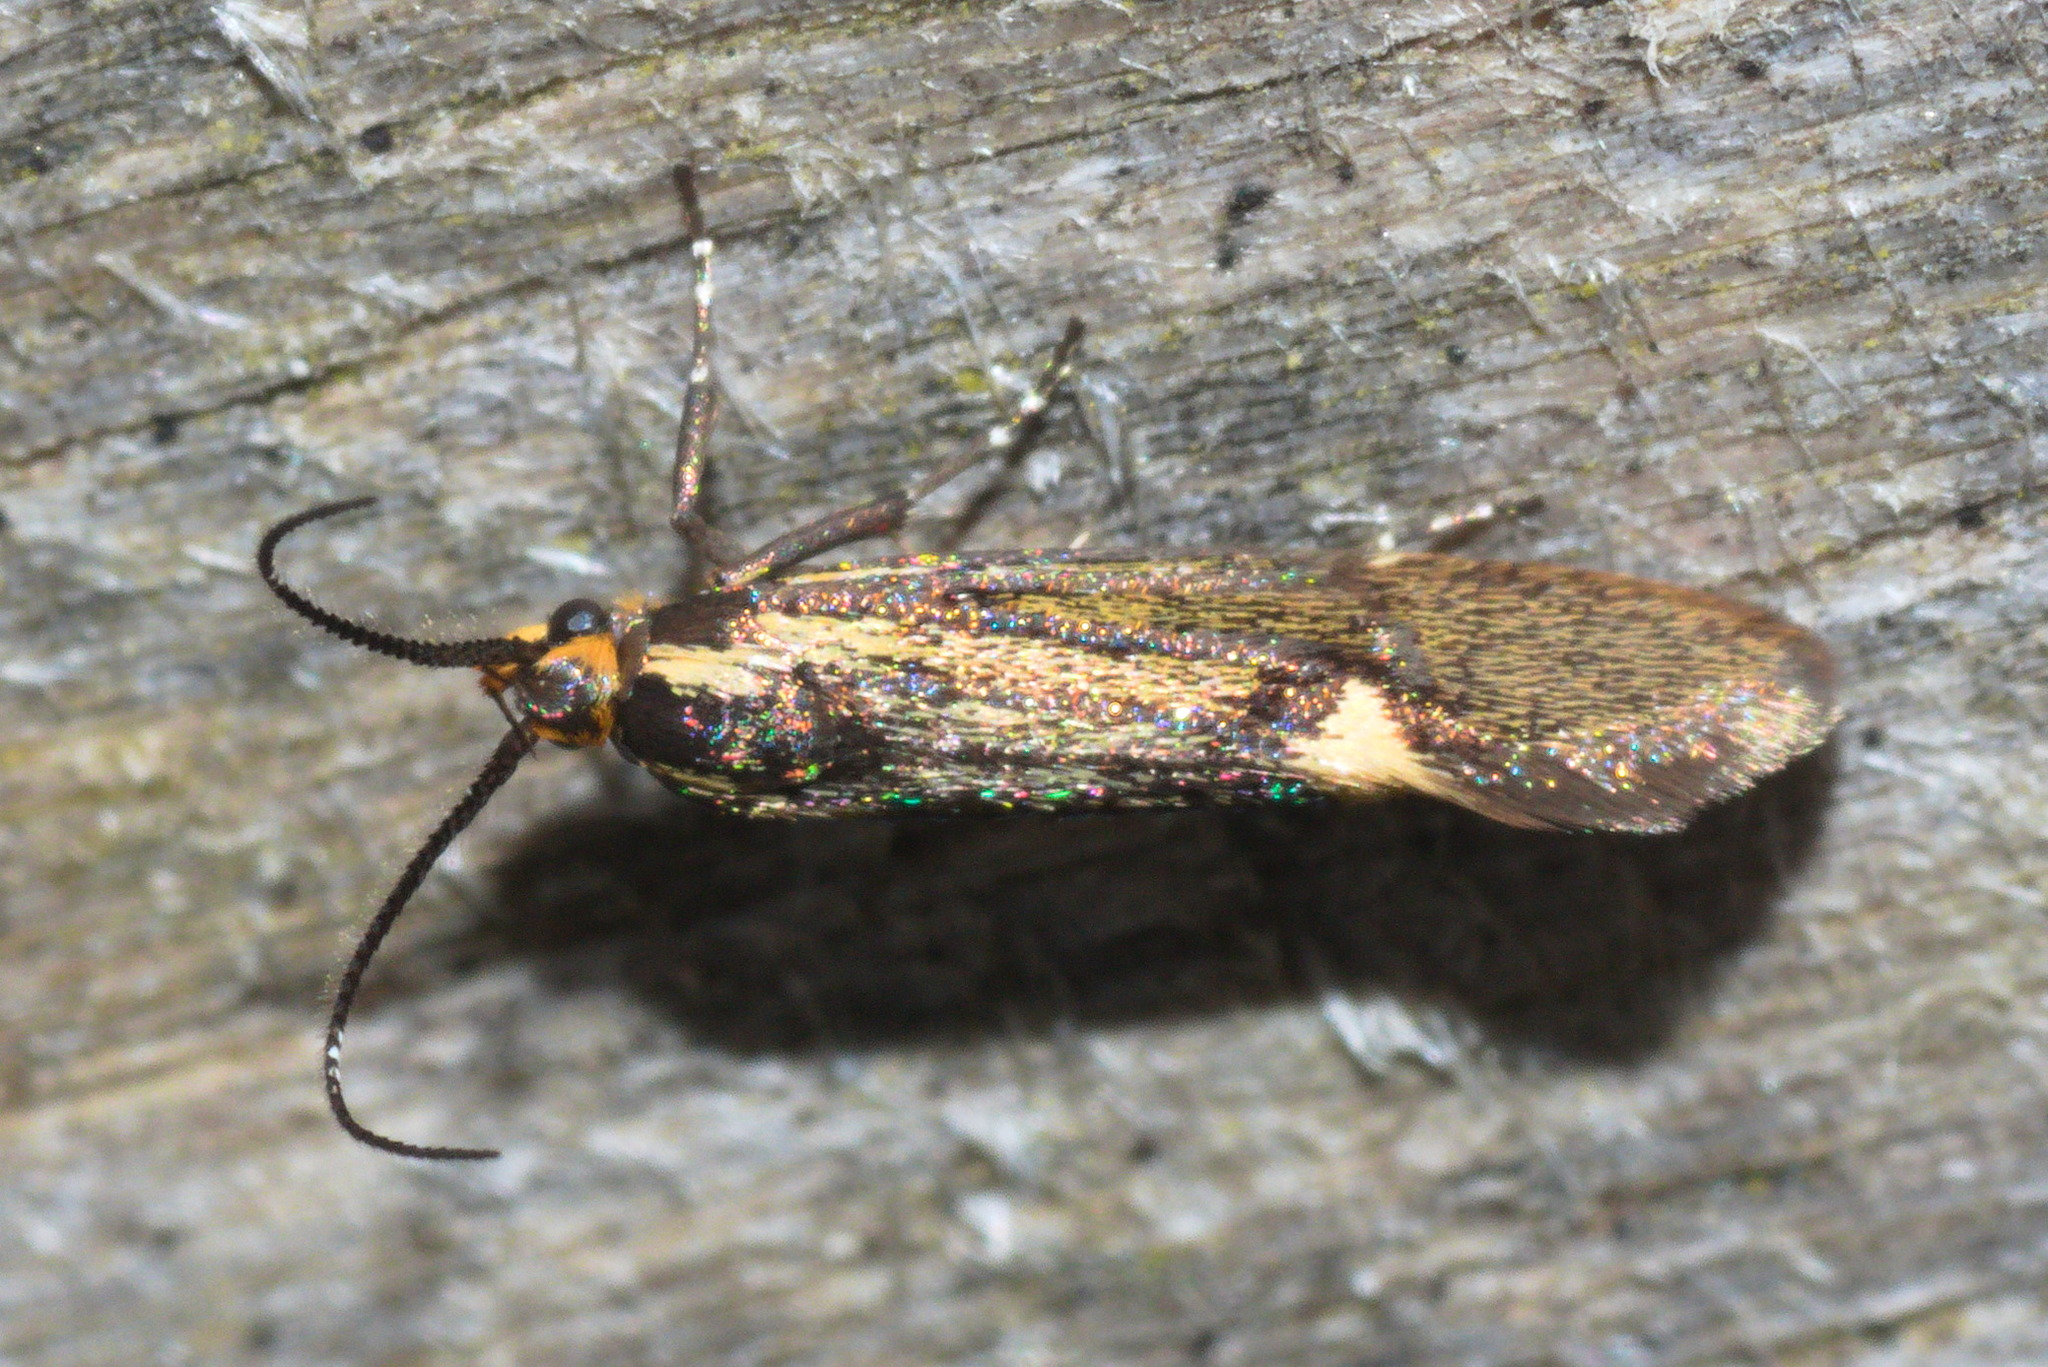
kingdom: Animalia
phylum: Arthropoda
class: Insecta
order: Lepidoptera
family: Oecophoridae
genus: Dafa
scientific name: Dafa Esperia sulphurella
